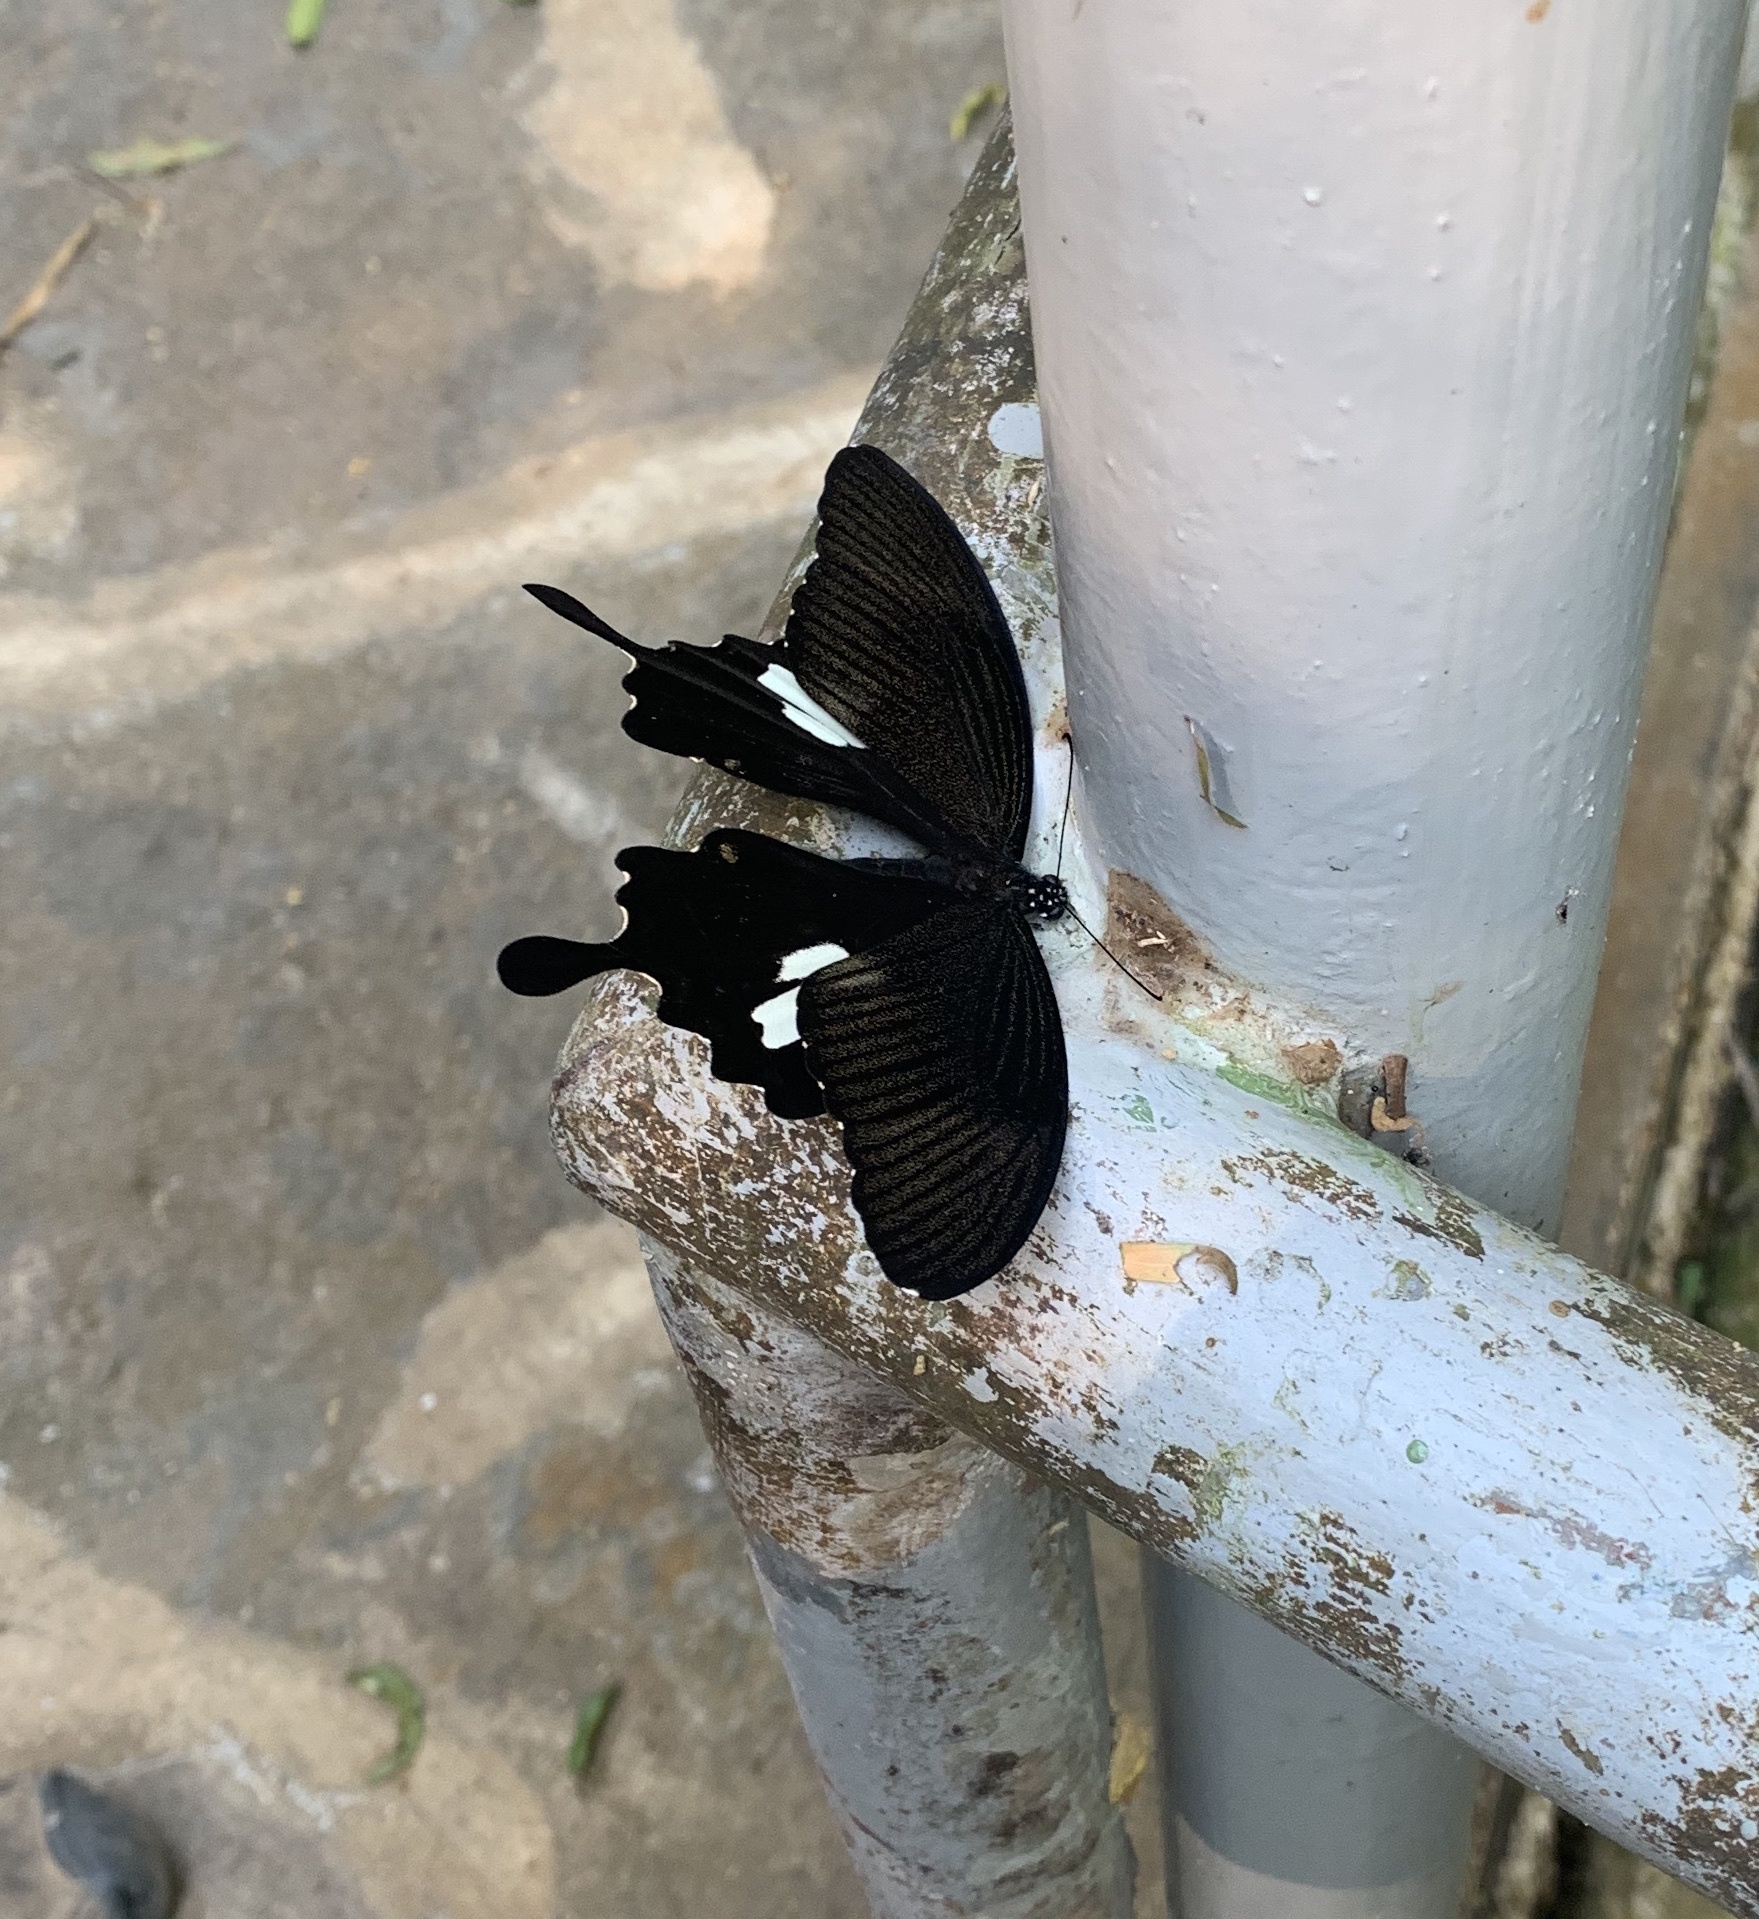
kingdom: Animalia
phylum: Arthropoda
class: Insecta
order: Lepidoptera
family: Papilionidae
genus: Papilio
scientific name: Papilio nephelus
